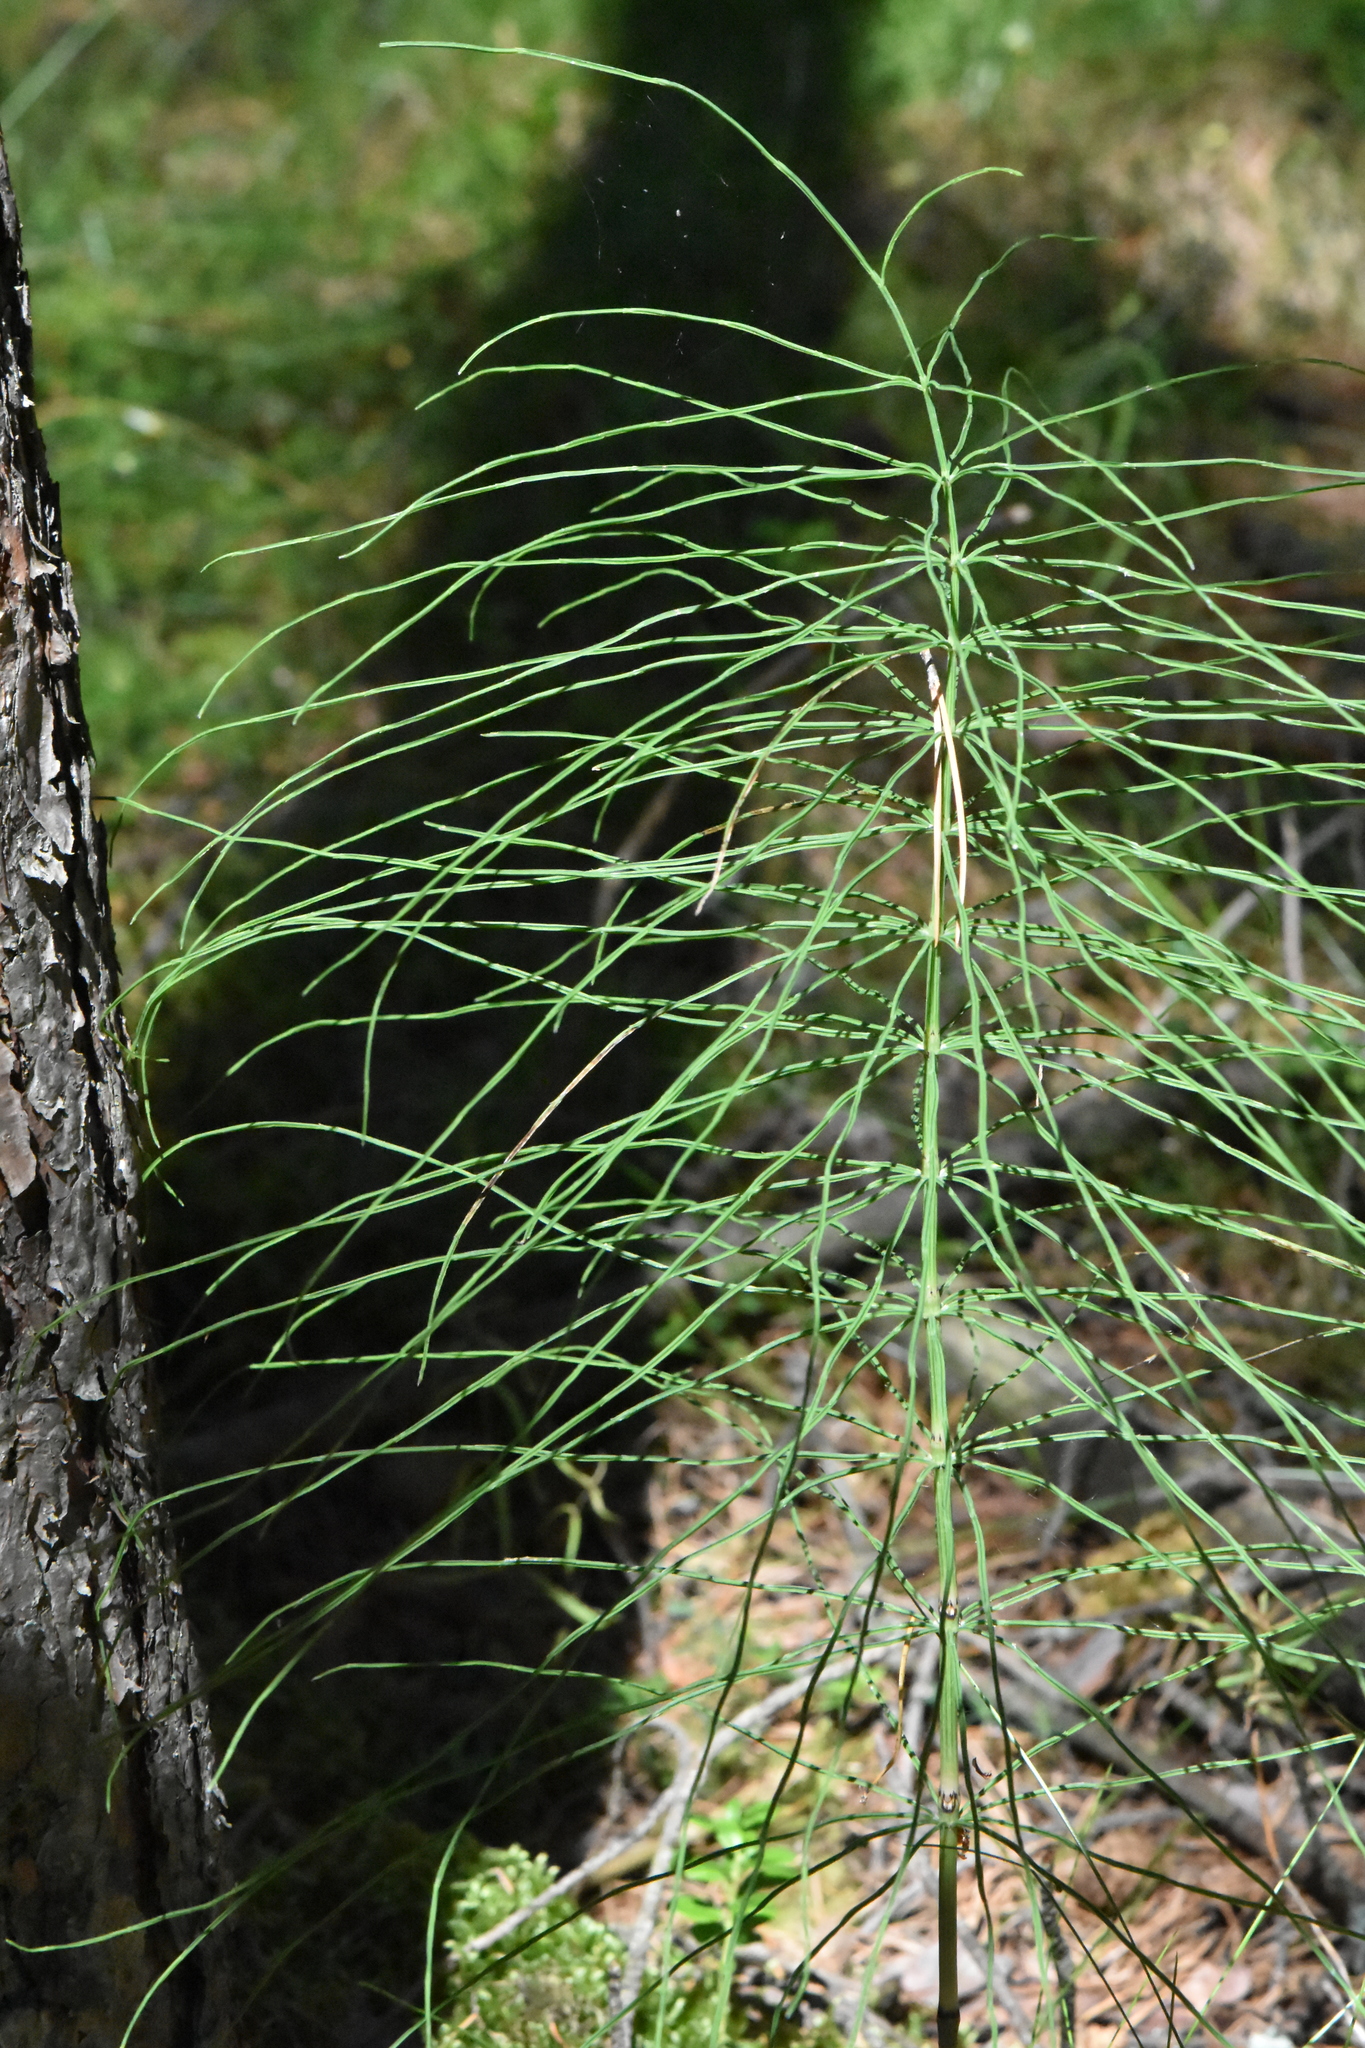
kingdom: Plantae
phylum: Tracheophyta
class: Polypodiopsida
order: Equisetales
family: Equisetaceae
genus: Equisetum
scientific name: Equisetum pratense
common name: Meadow horsetail
